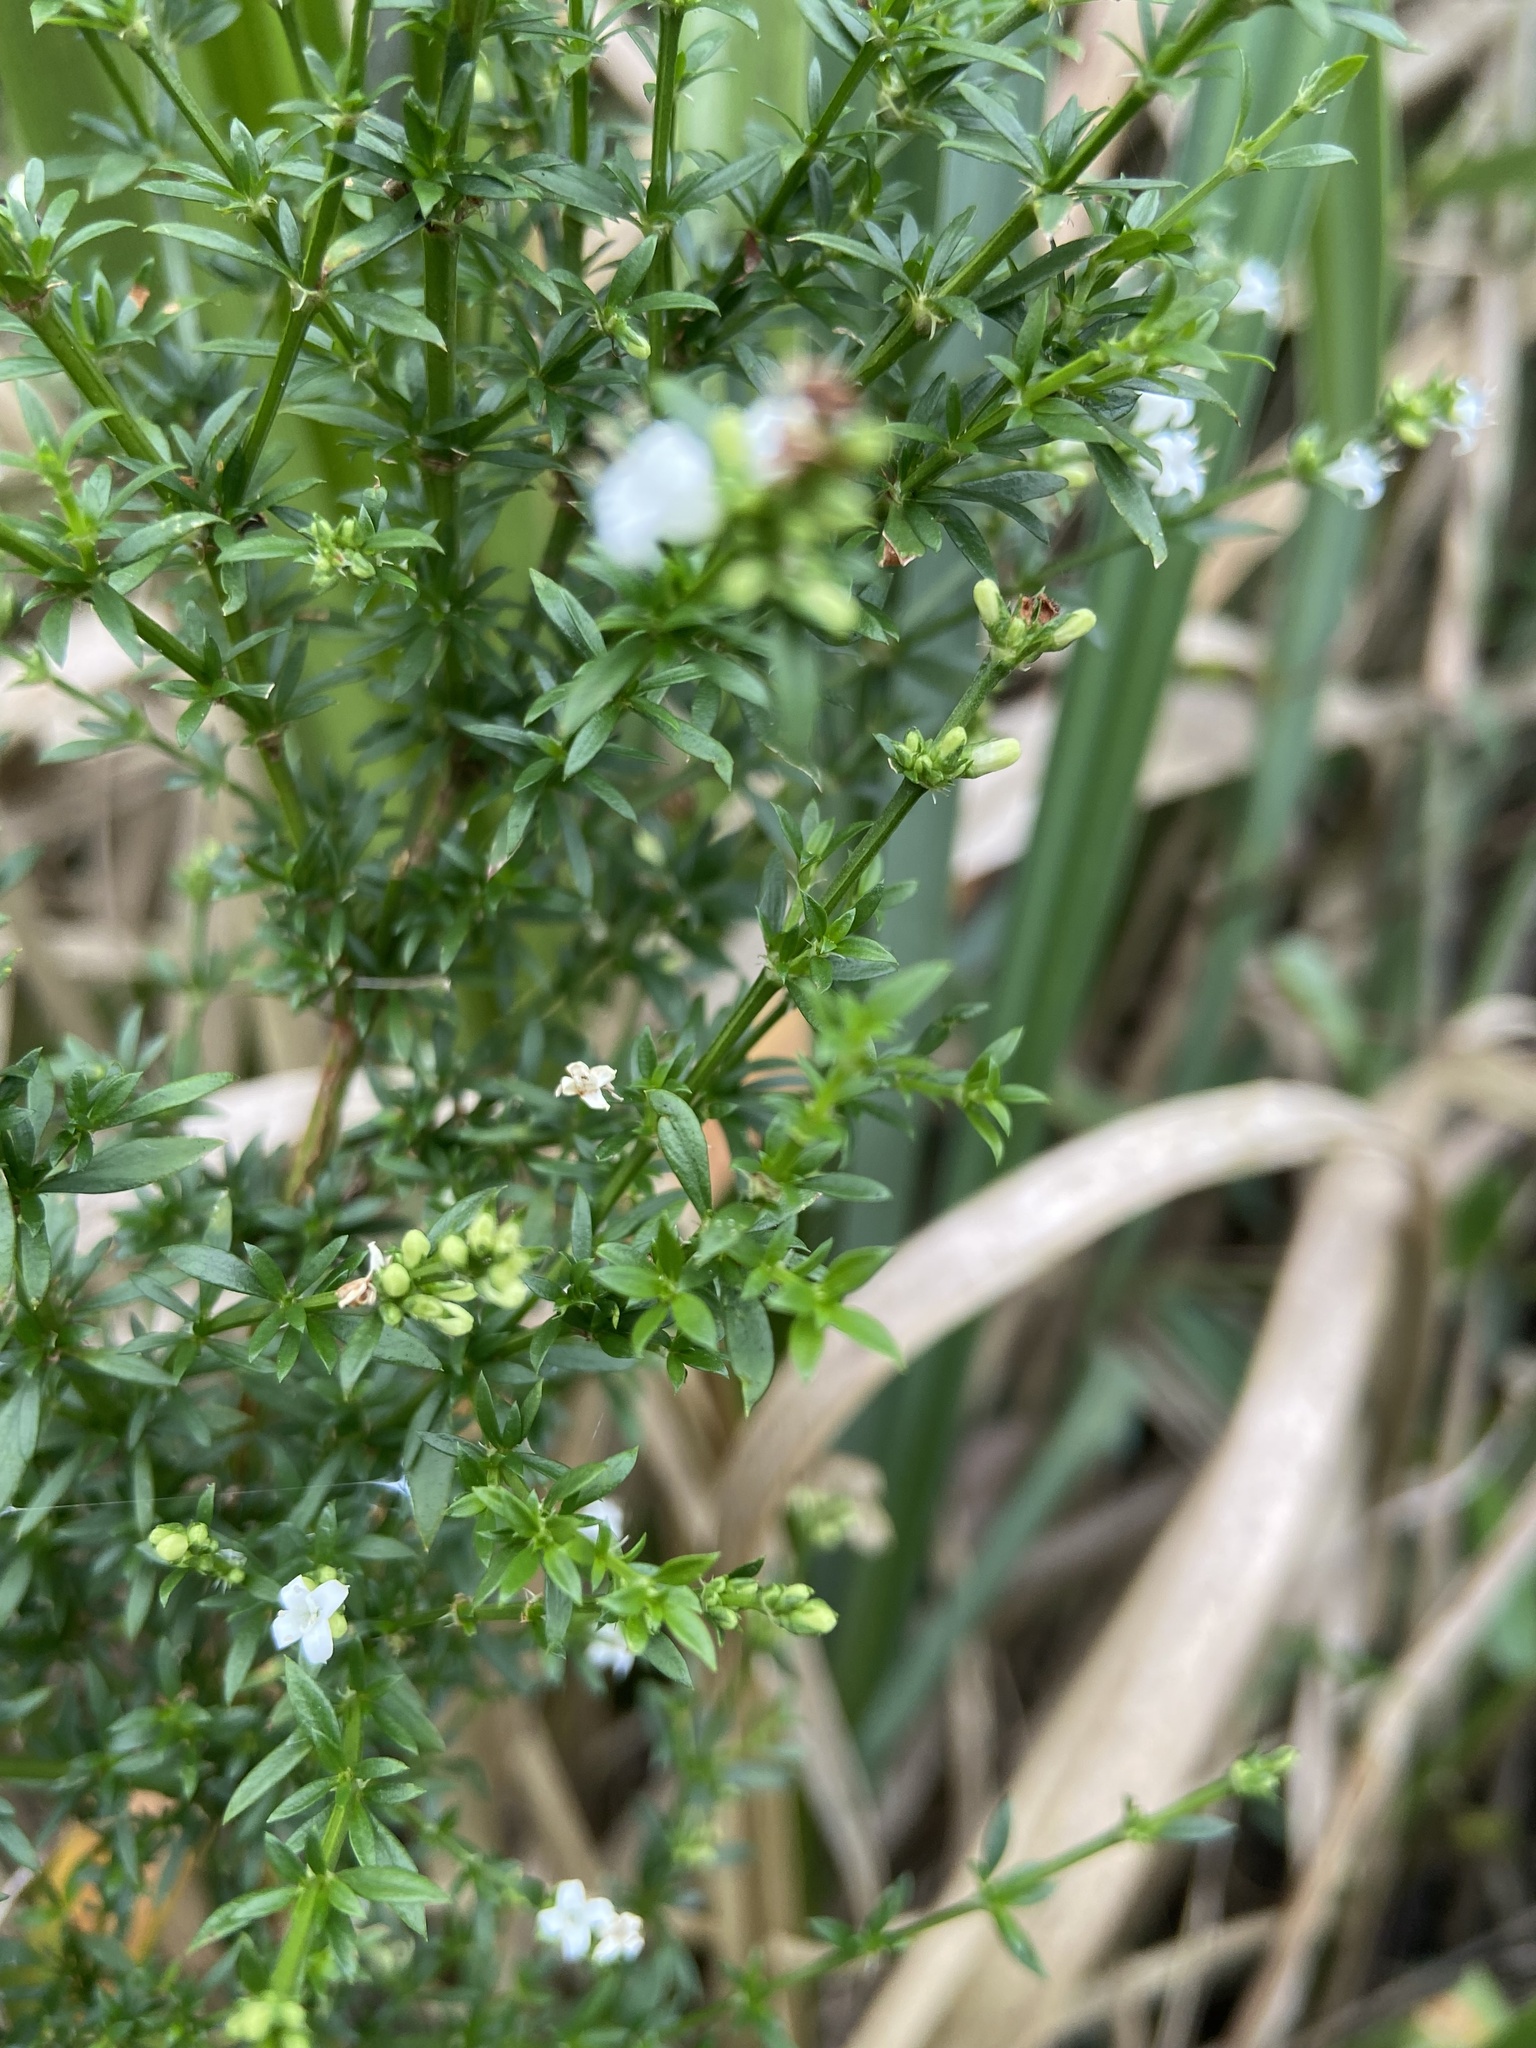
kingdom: Plantae
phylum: Tracheophyta
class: Magnoliopsida
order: Gentianales
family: Rubiaceae
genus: Galianthe
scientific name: Galianthe brasiliensis
